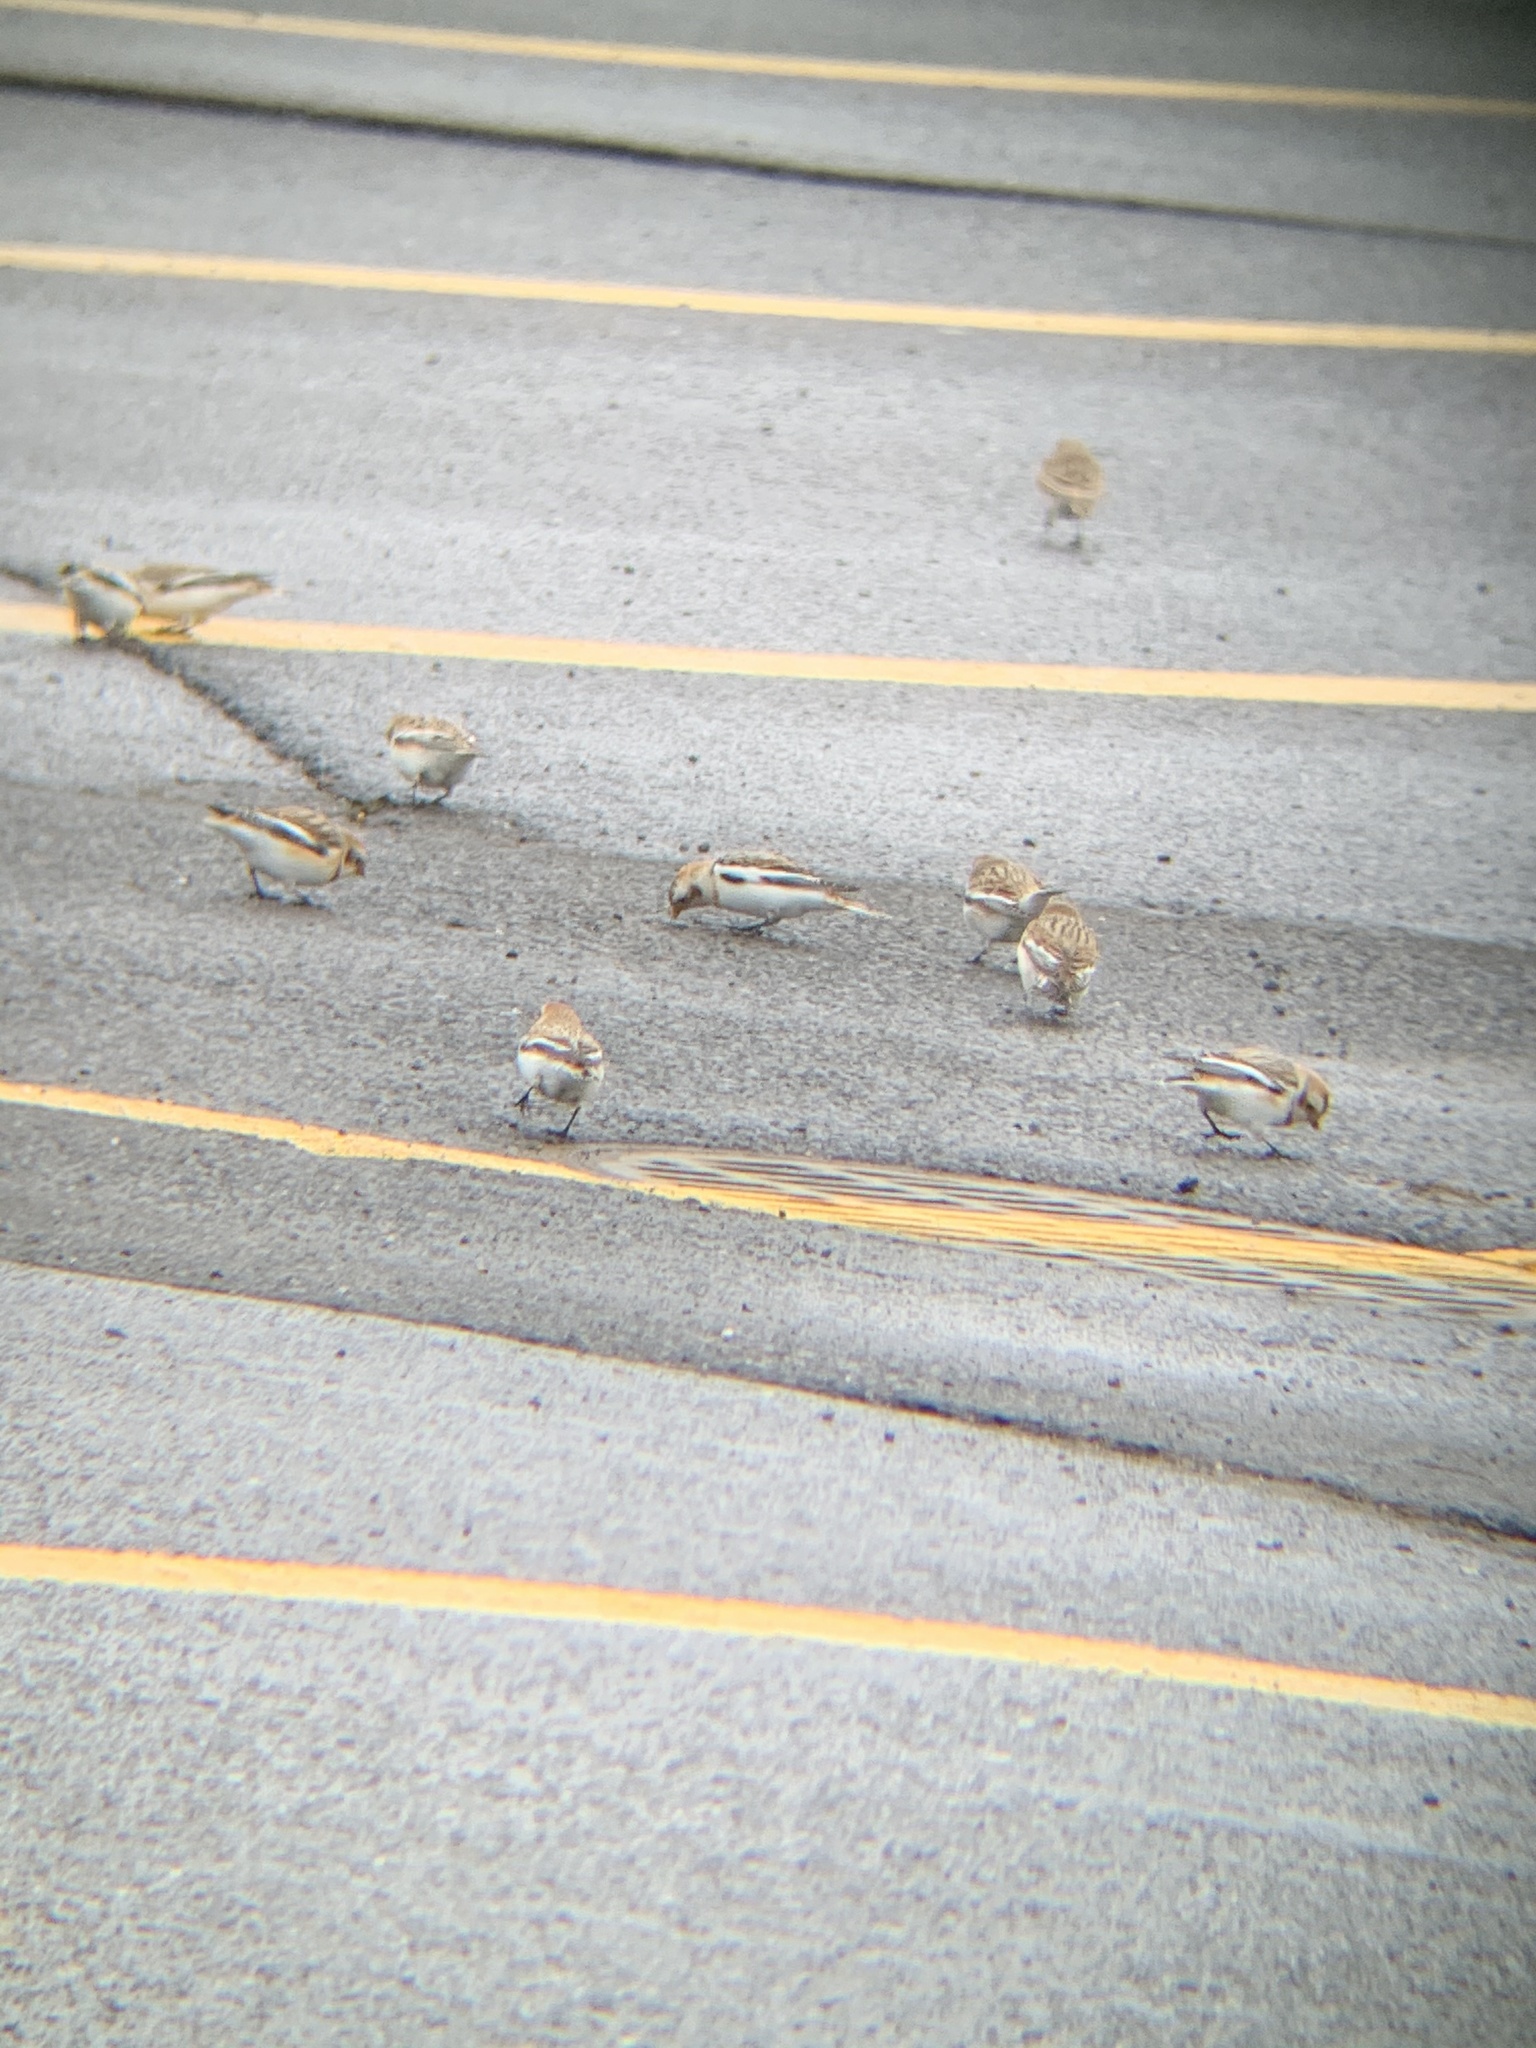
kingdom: Animalia
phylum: Chordata
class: Aves
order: Passeriformes
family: Calcariidae
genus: Plectrophenax
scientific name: Plectrophenax nivalis
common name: Snow bunting
